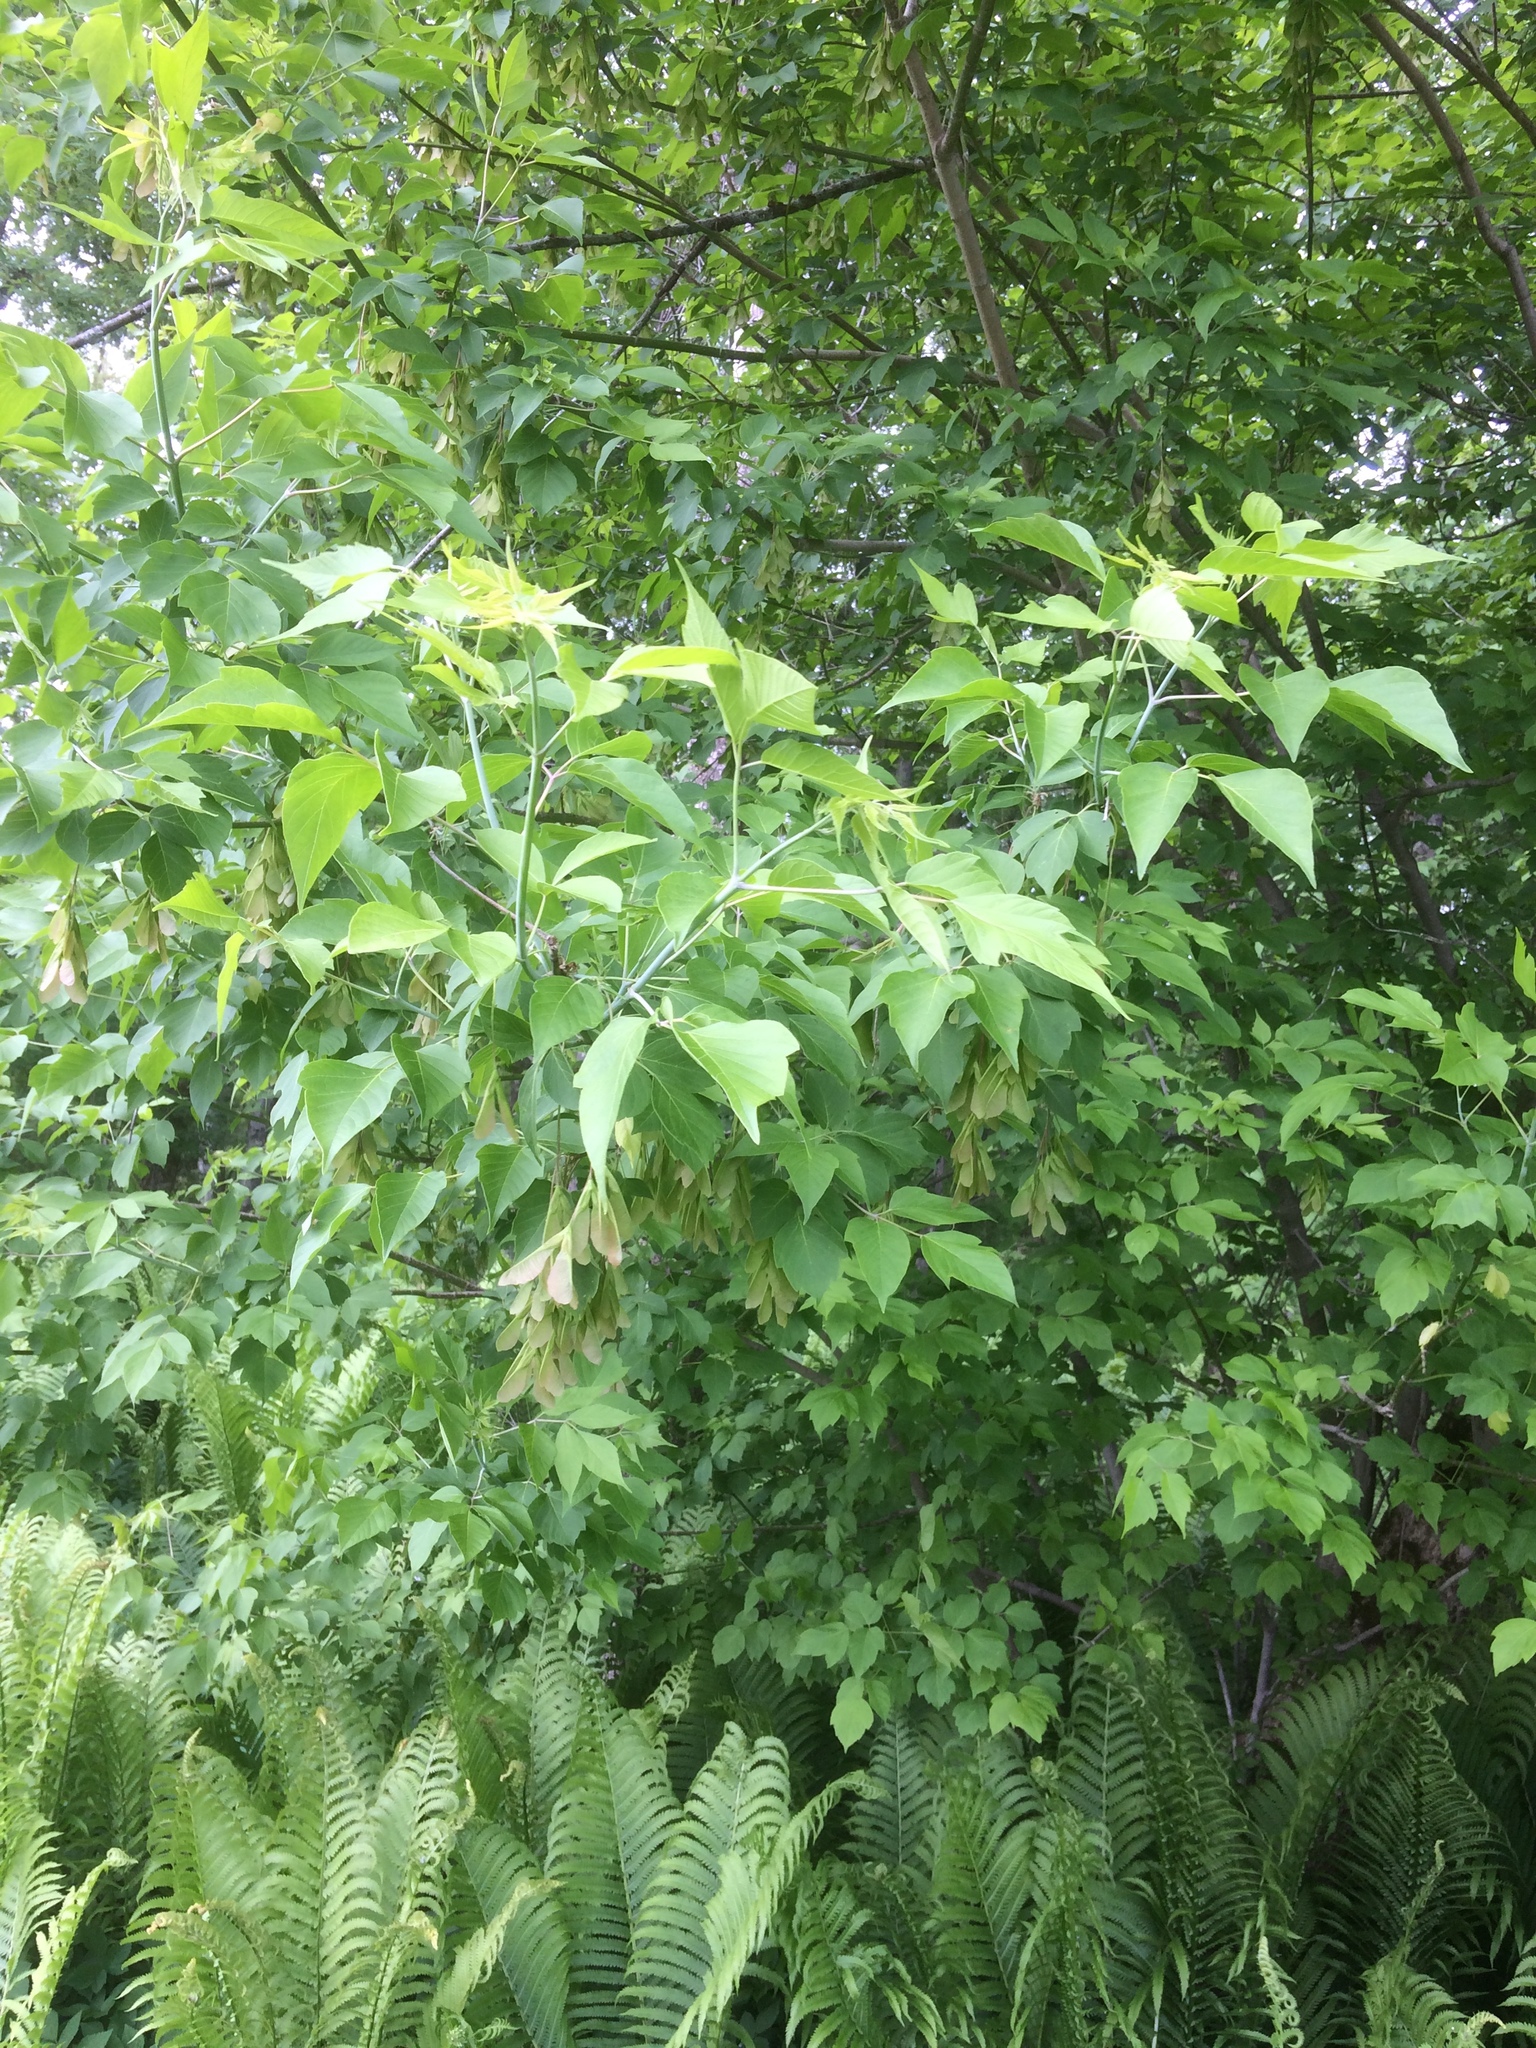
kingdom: Plantae
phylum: Tracheophyta
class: Magnoliopsida
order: Sapindales
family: Sapindaceae
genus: Acer
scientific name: Acer negundo
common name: Ashleaf maple
